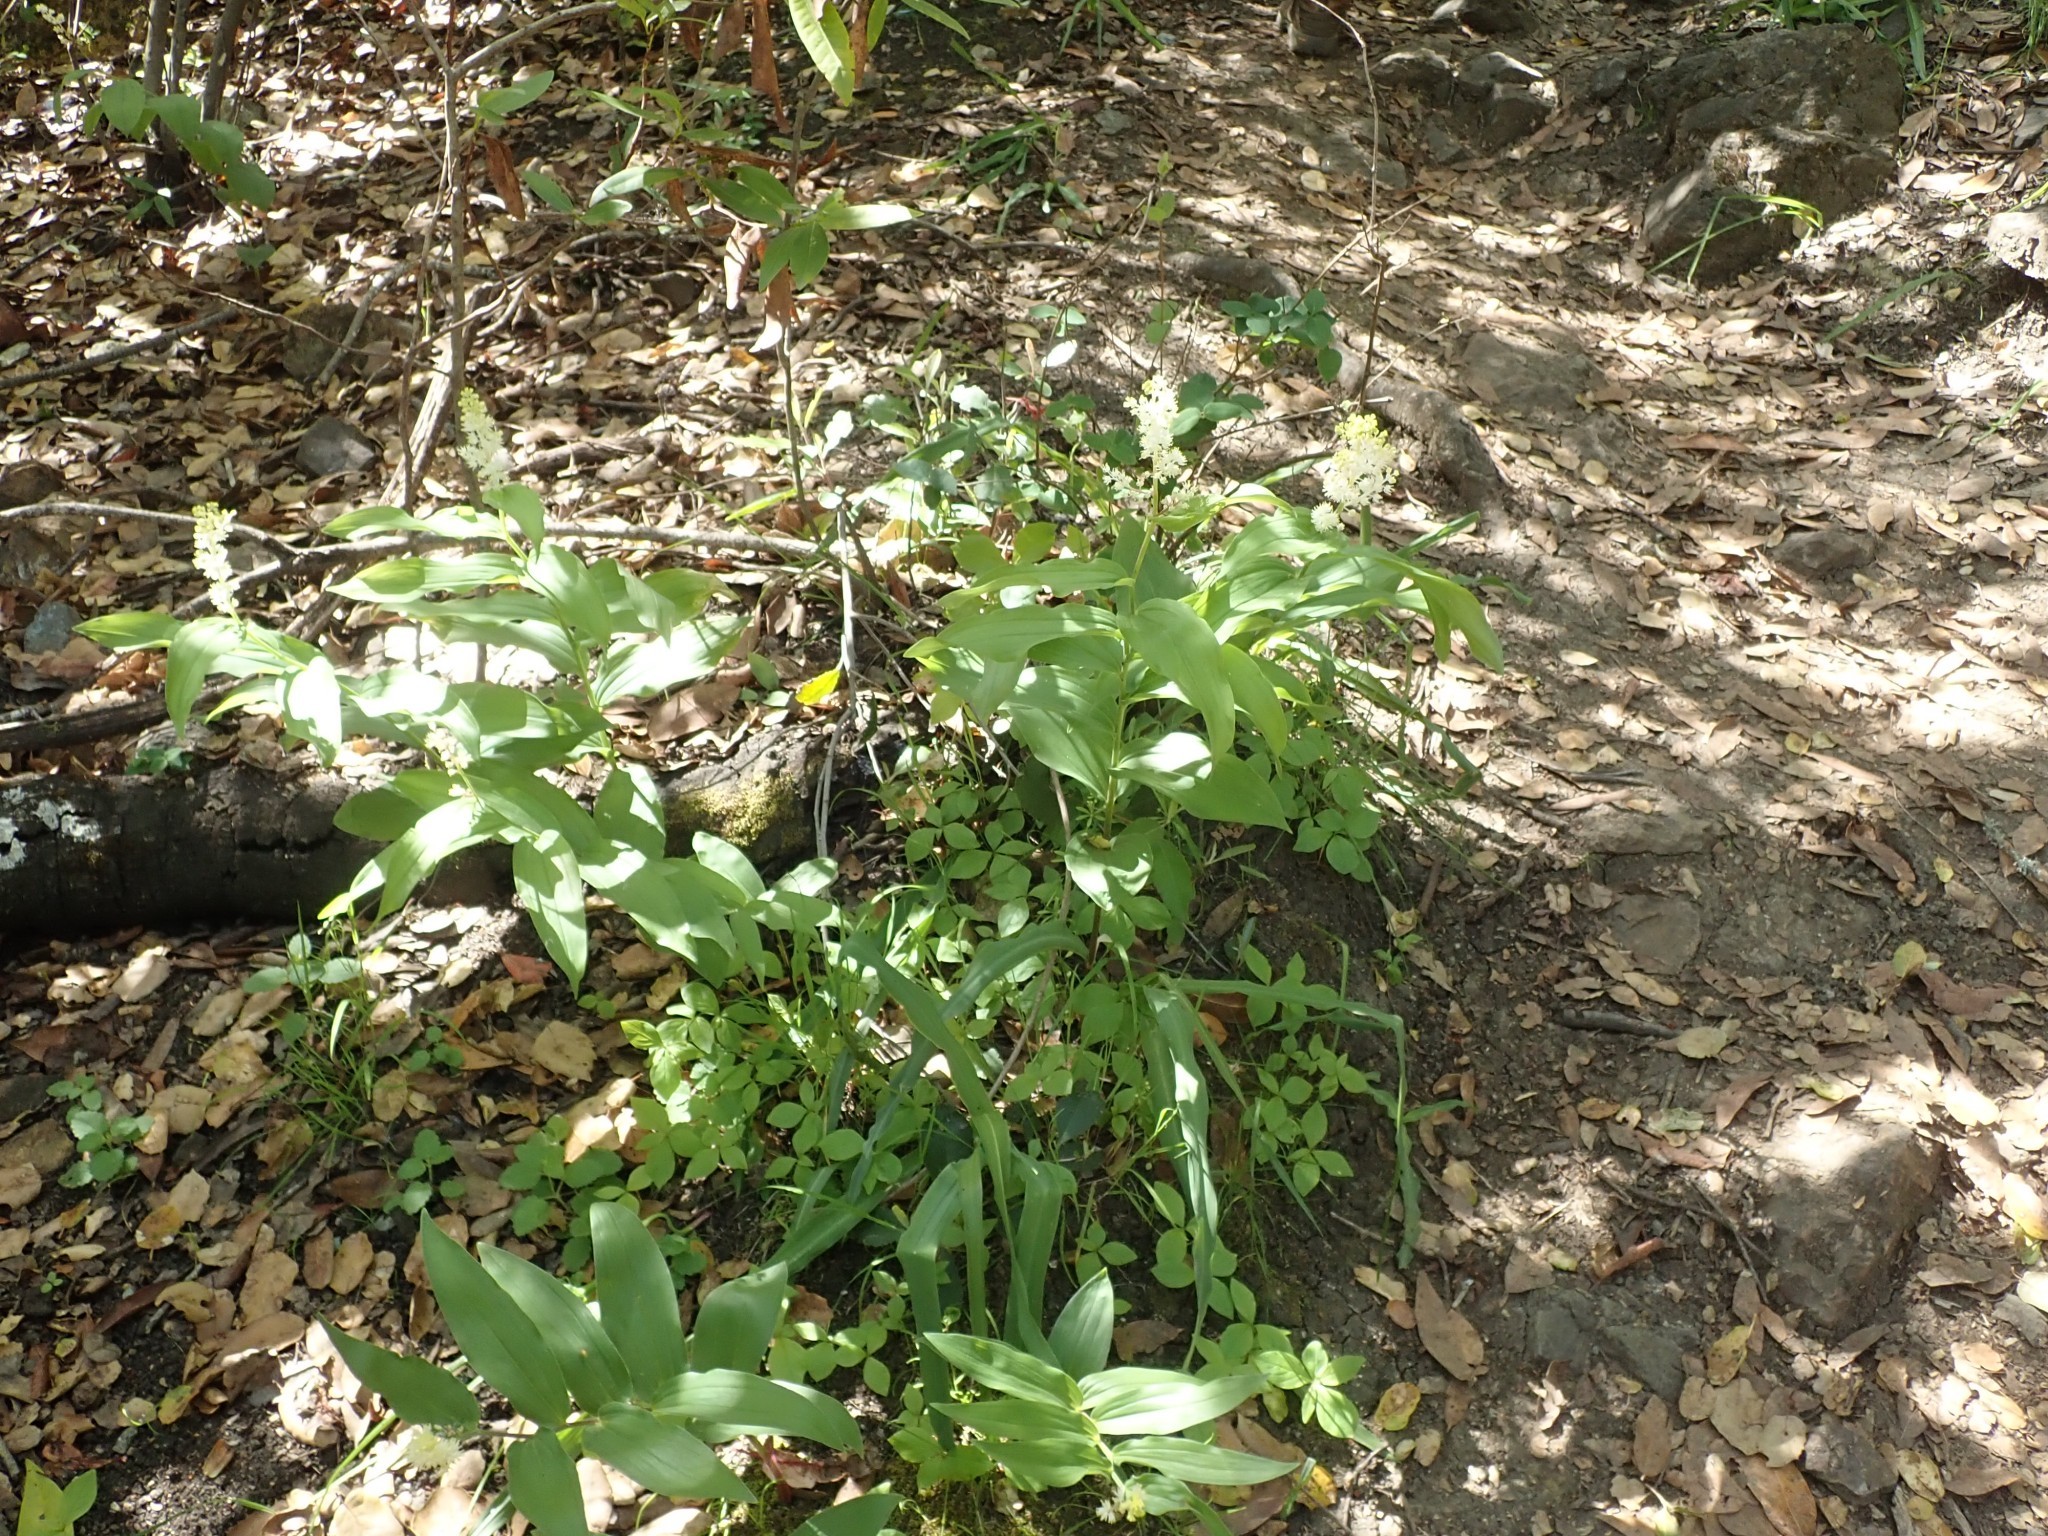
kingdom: Plantae
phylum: Tracheophyta
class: Liliopsida
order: Asparagales
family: Asparagaceae
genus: Maianthemum
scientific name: Maianthemum racemosum
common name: False spikenard
